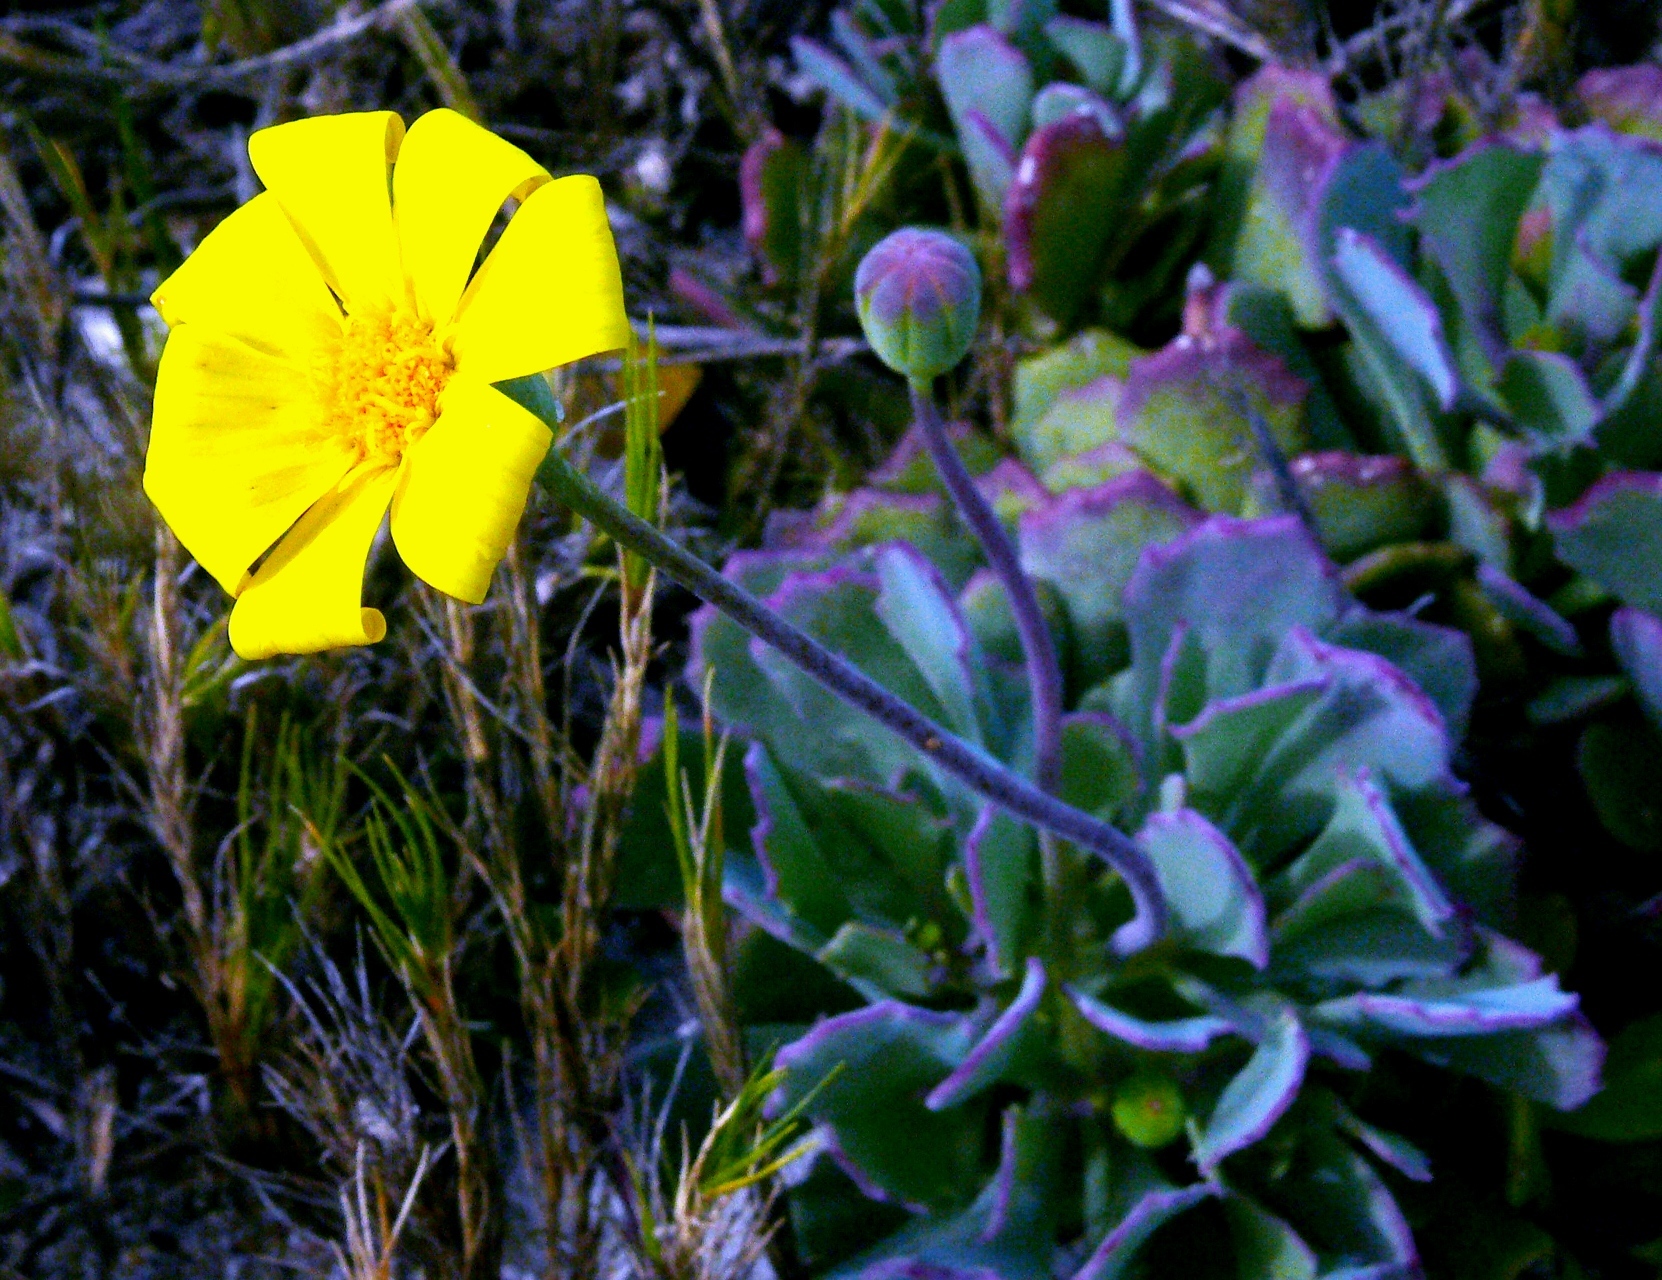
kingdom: Plantae
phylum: Tracheophyta
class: Magnoliopsida
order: Asterales
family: Asteraceae
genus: Othonna
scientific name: Othonna
